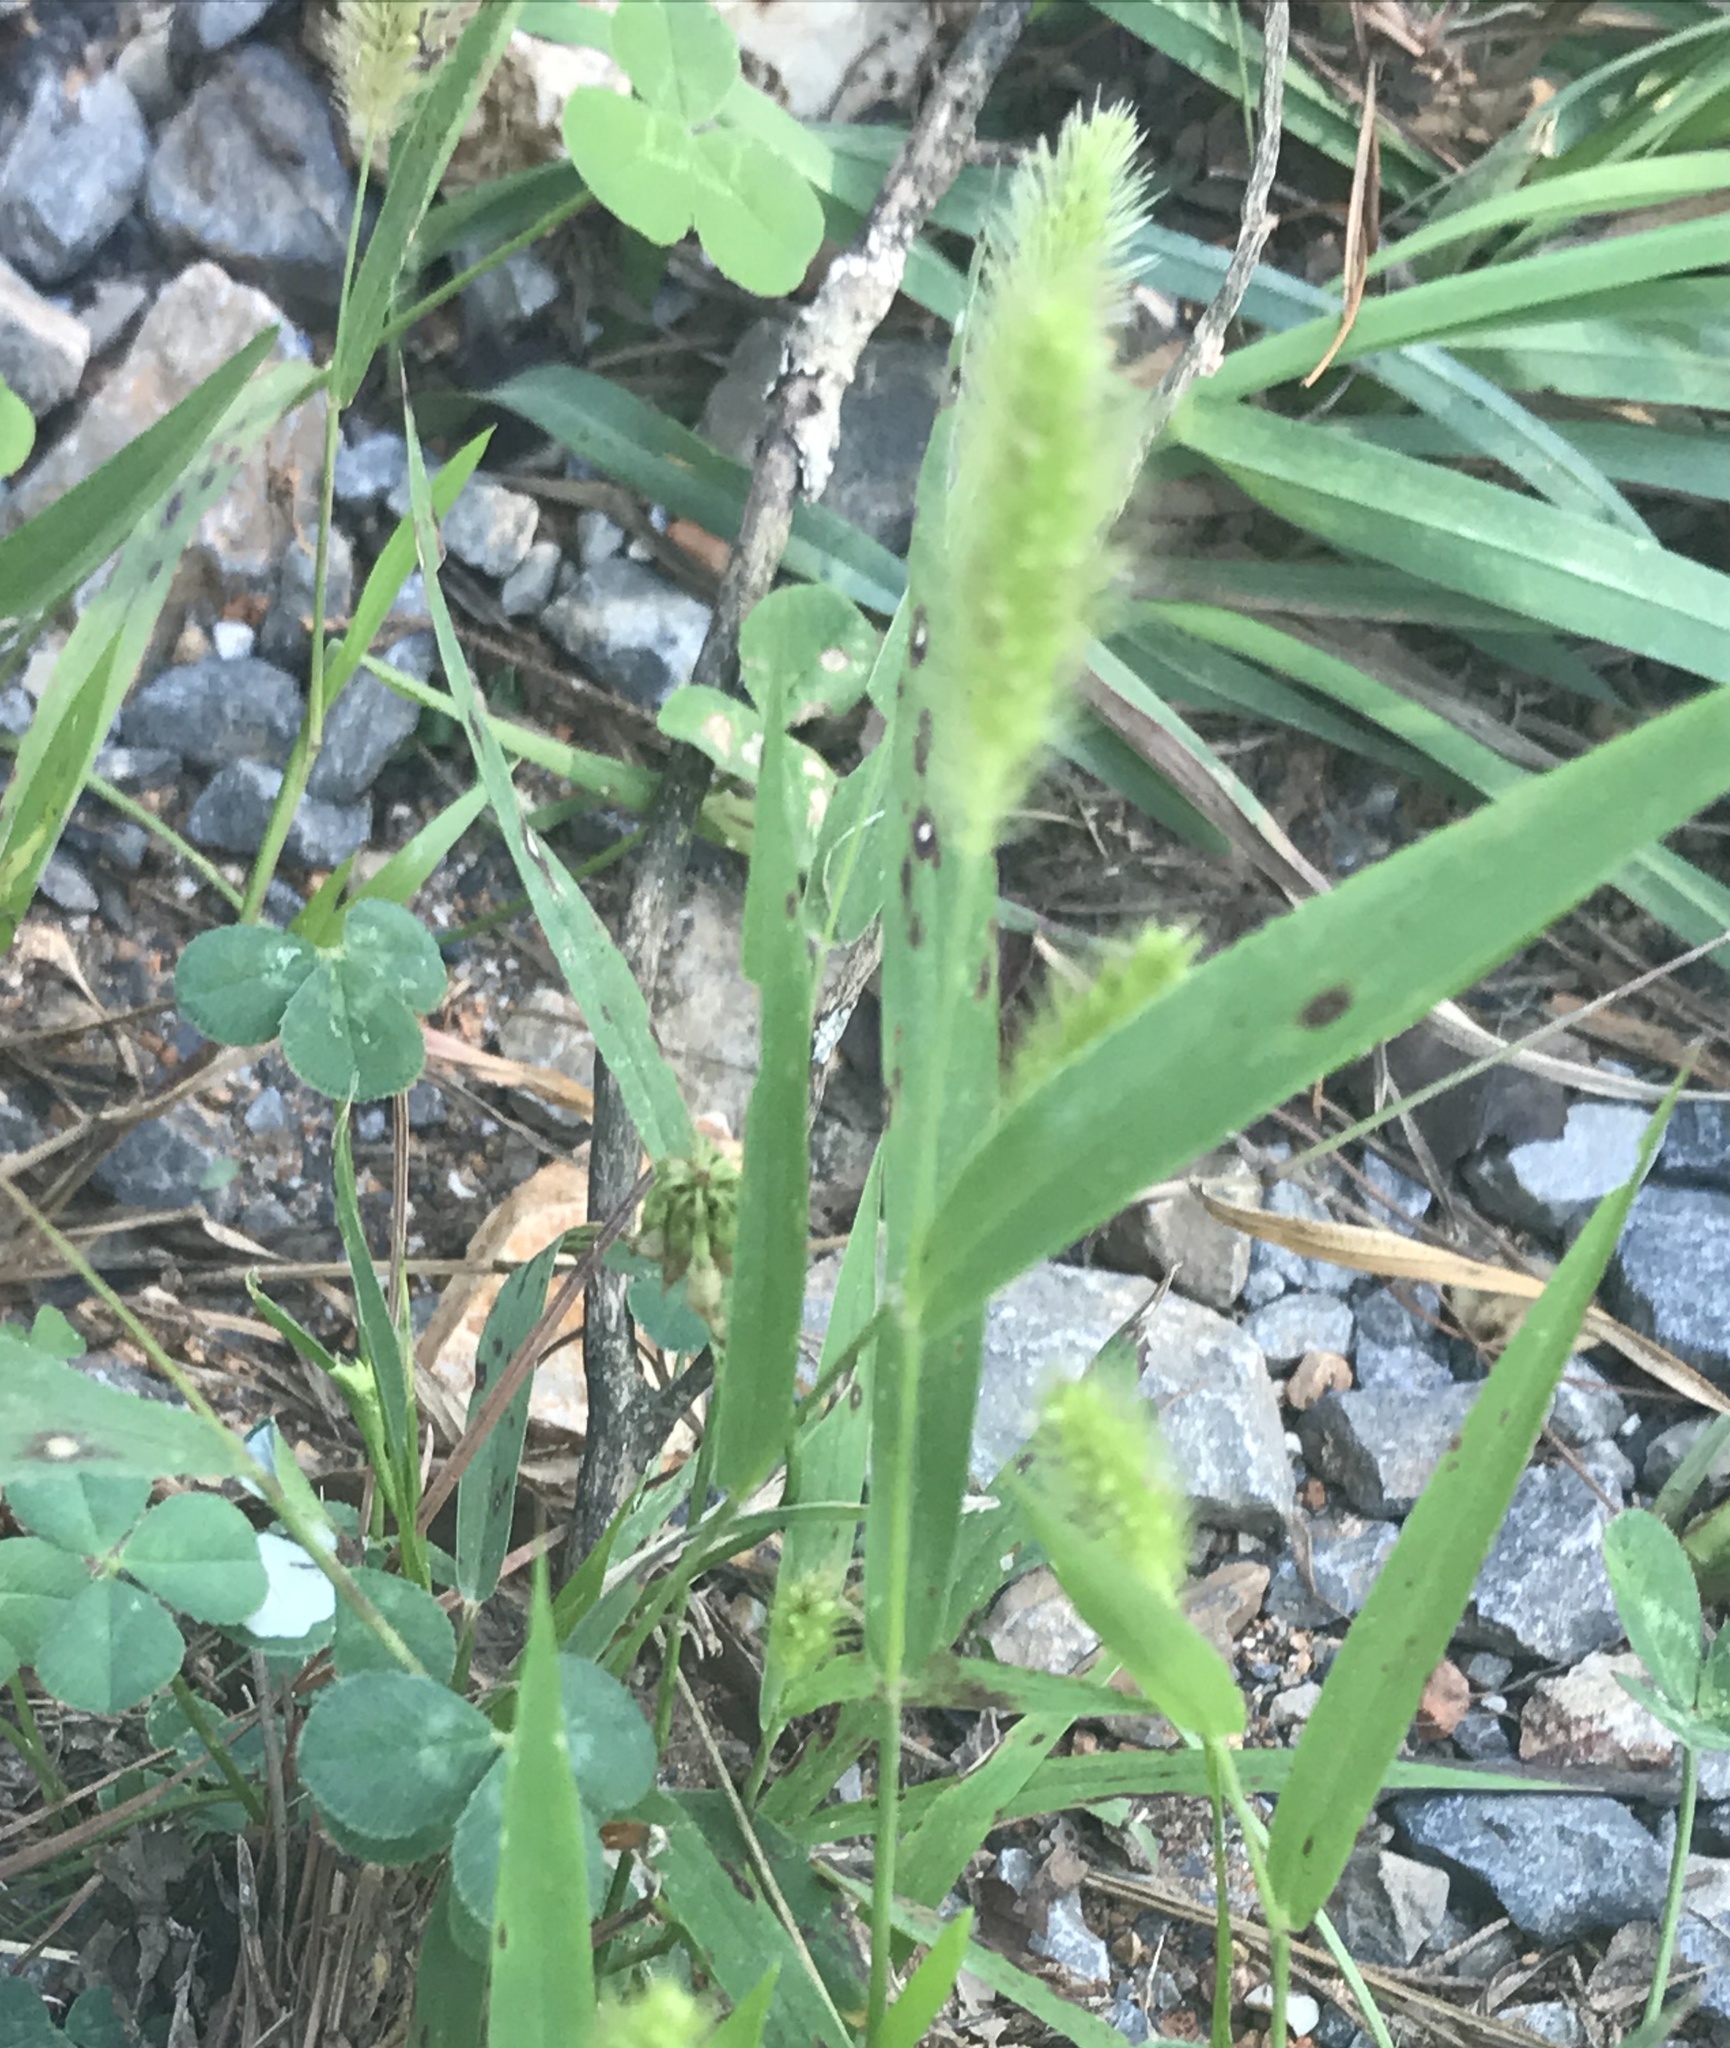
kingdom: Plantae
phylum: Tracheophyta
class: Liliopsida
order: Poales
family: Poaceae
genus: Setaria
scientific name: Setaria viridis
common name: Green bristlegrass
